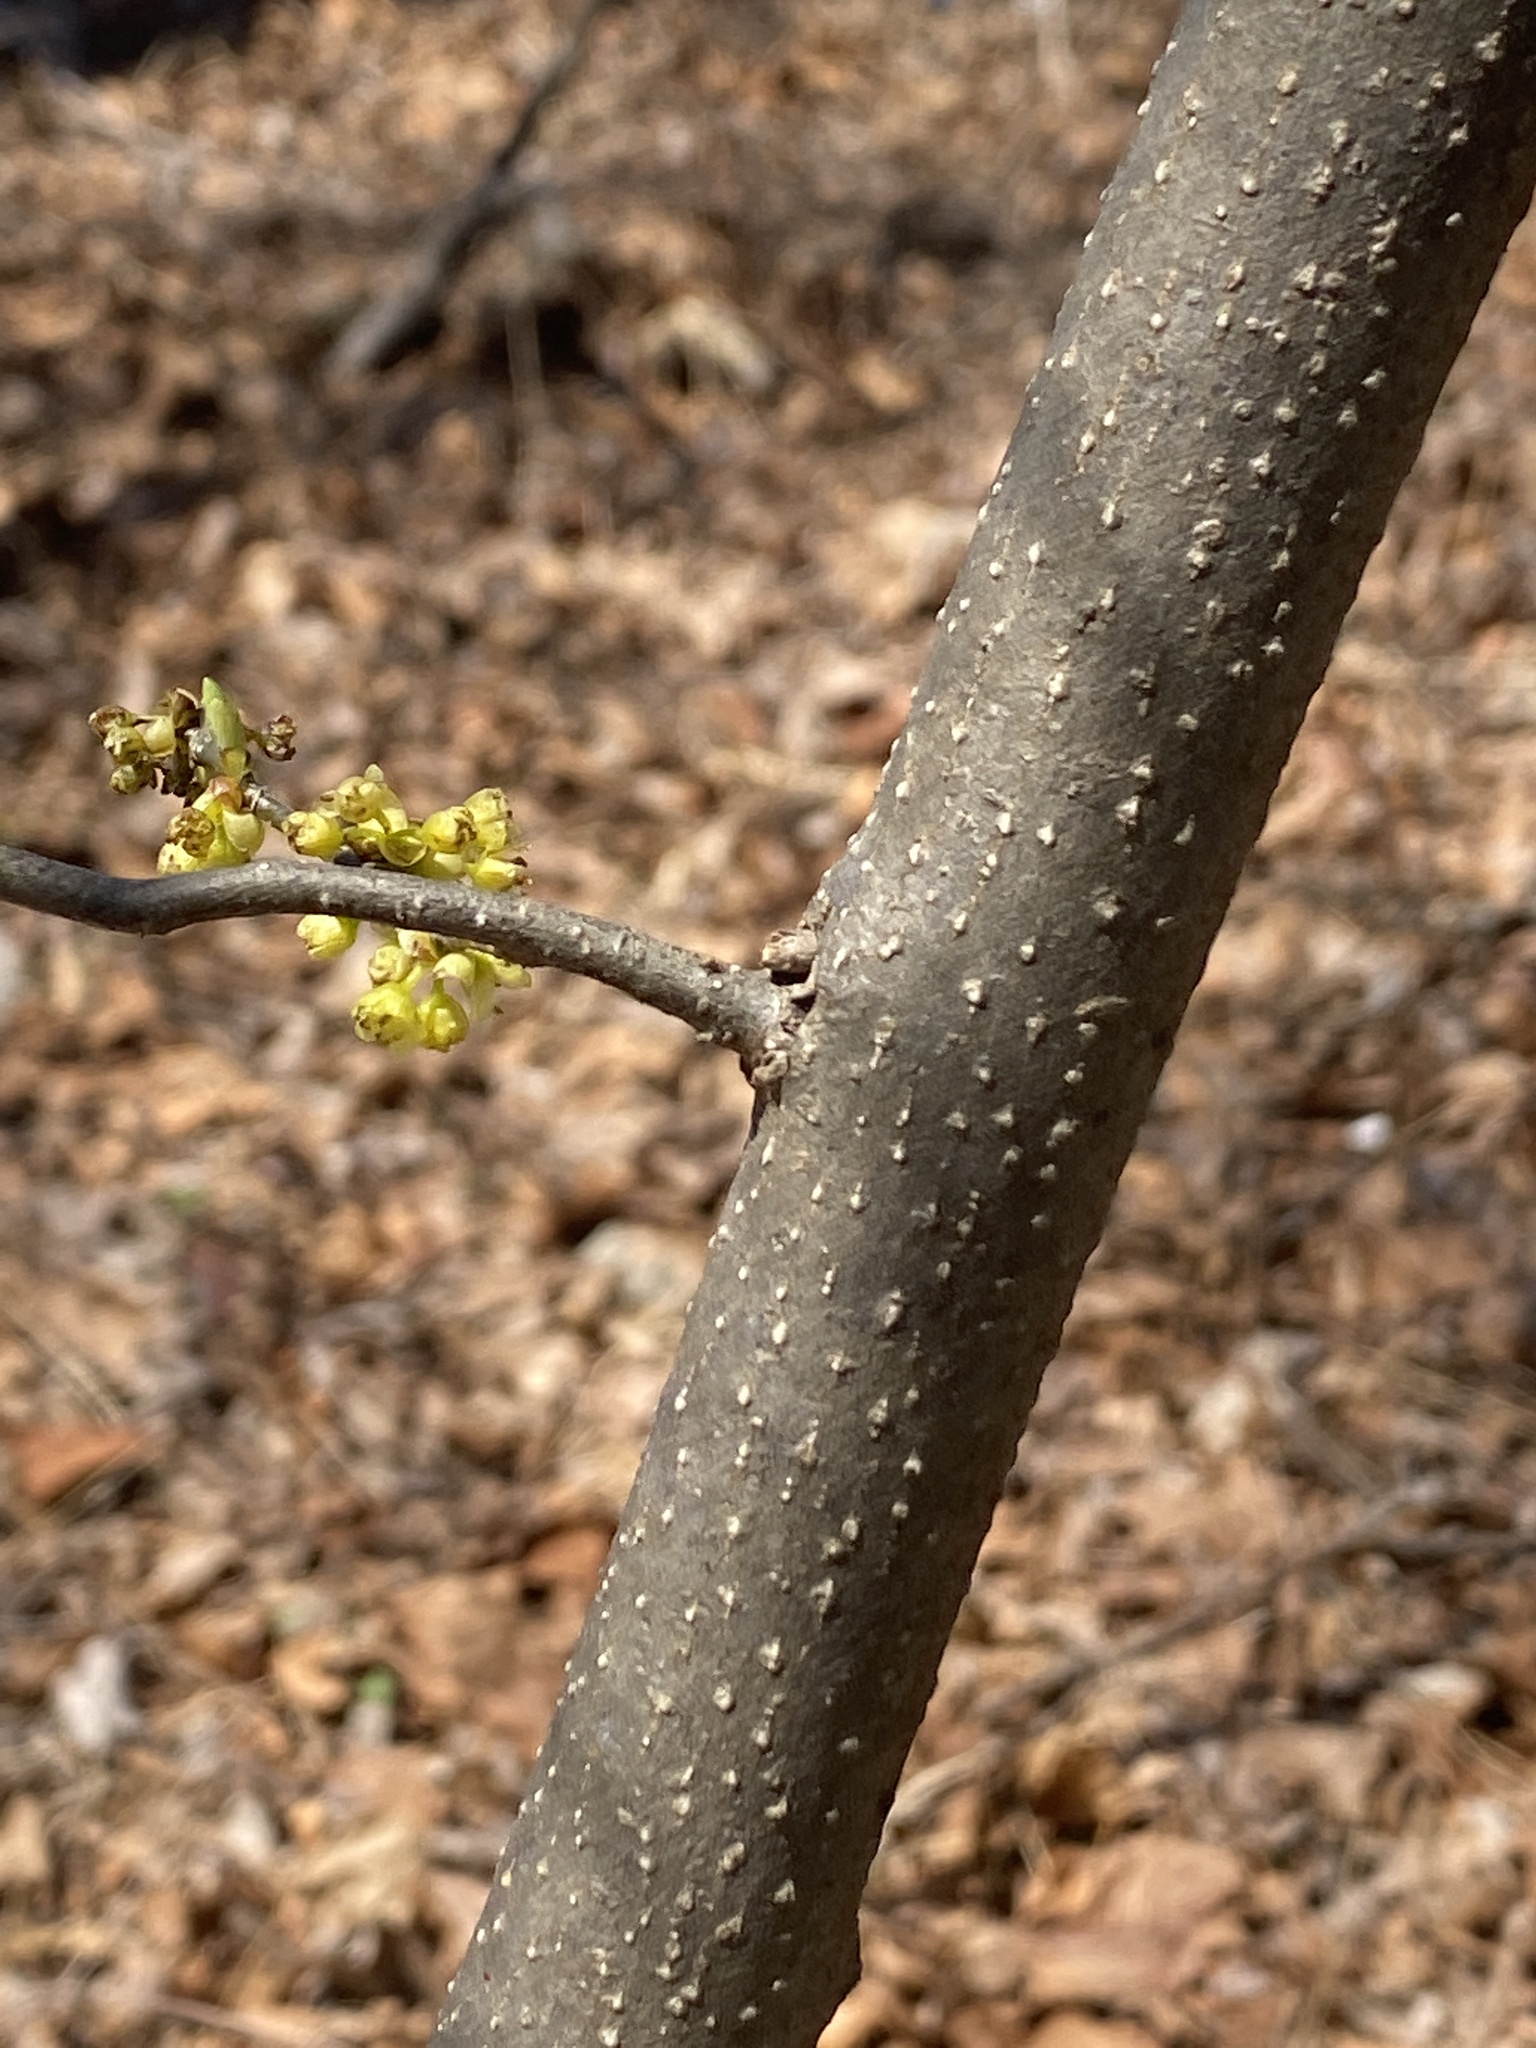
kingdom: Plantae
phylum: Tracheophyta
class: Magnoliopsida
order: Laurales
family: Lauraceae
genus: Lindera
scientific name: Lindera benzoin
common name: Spicebush
